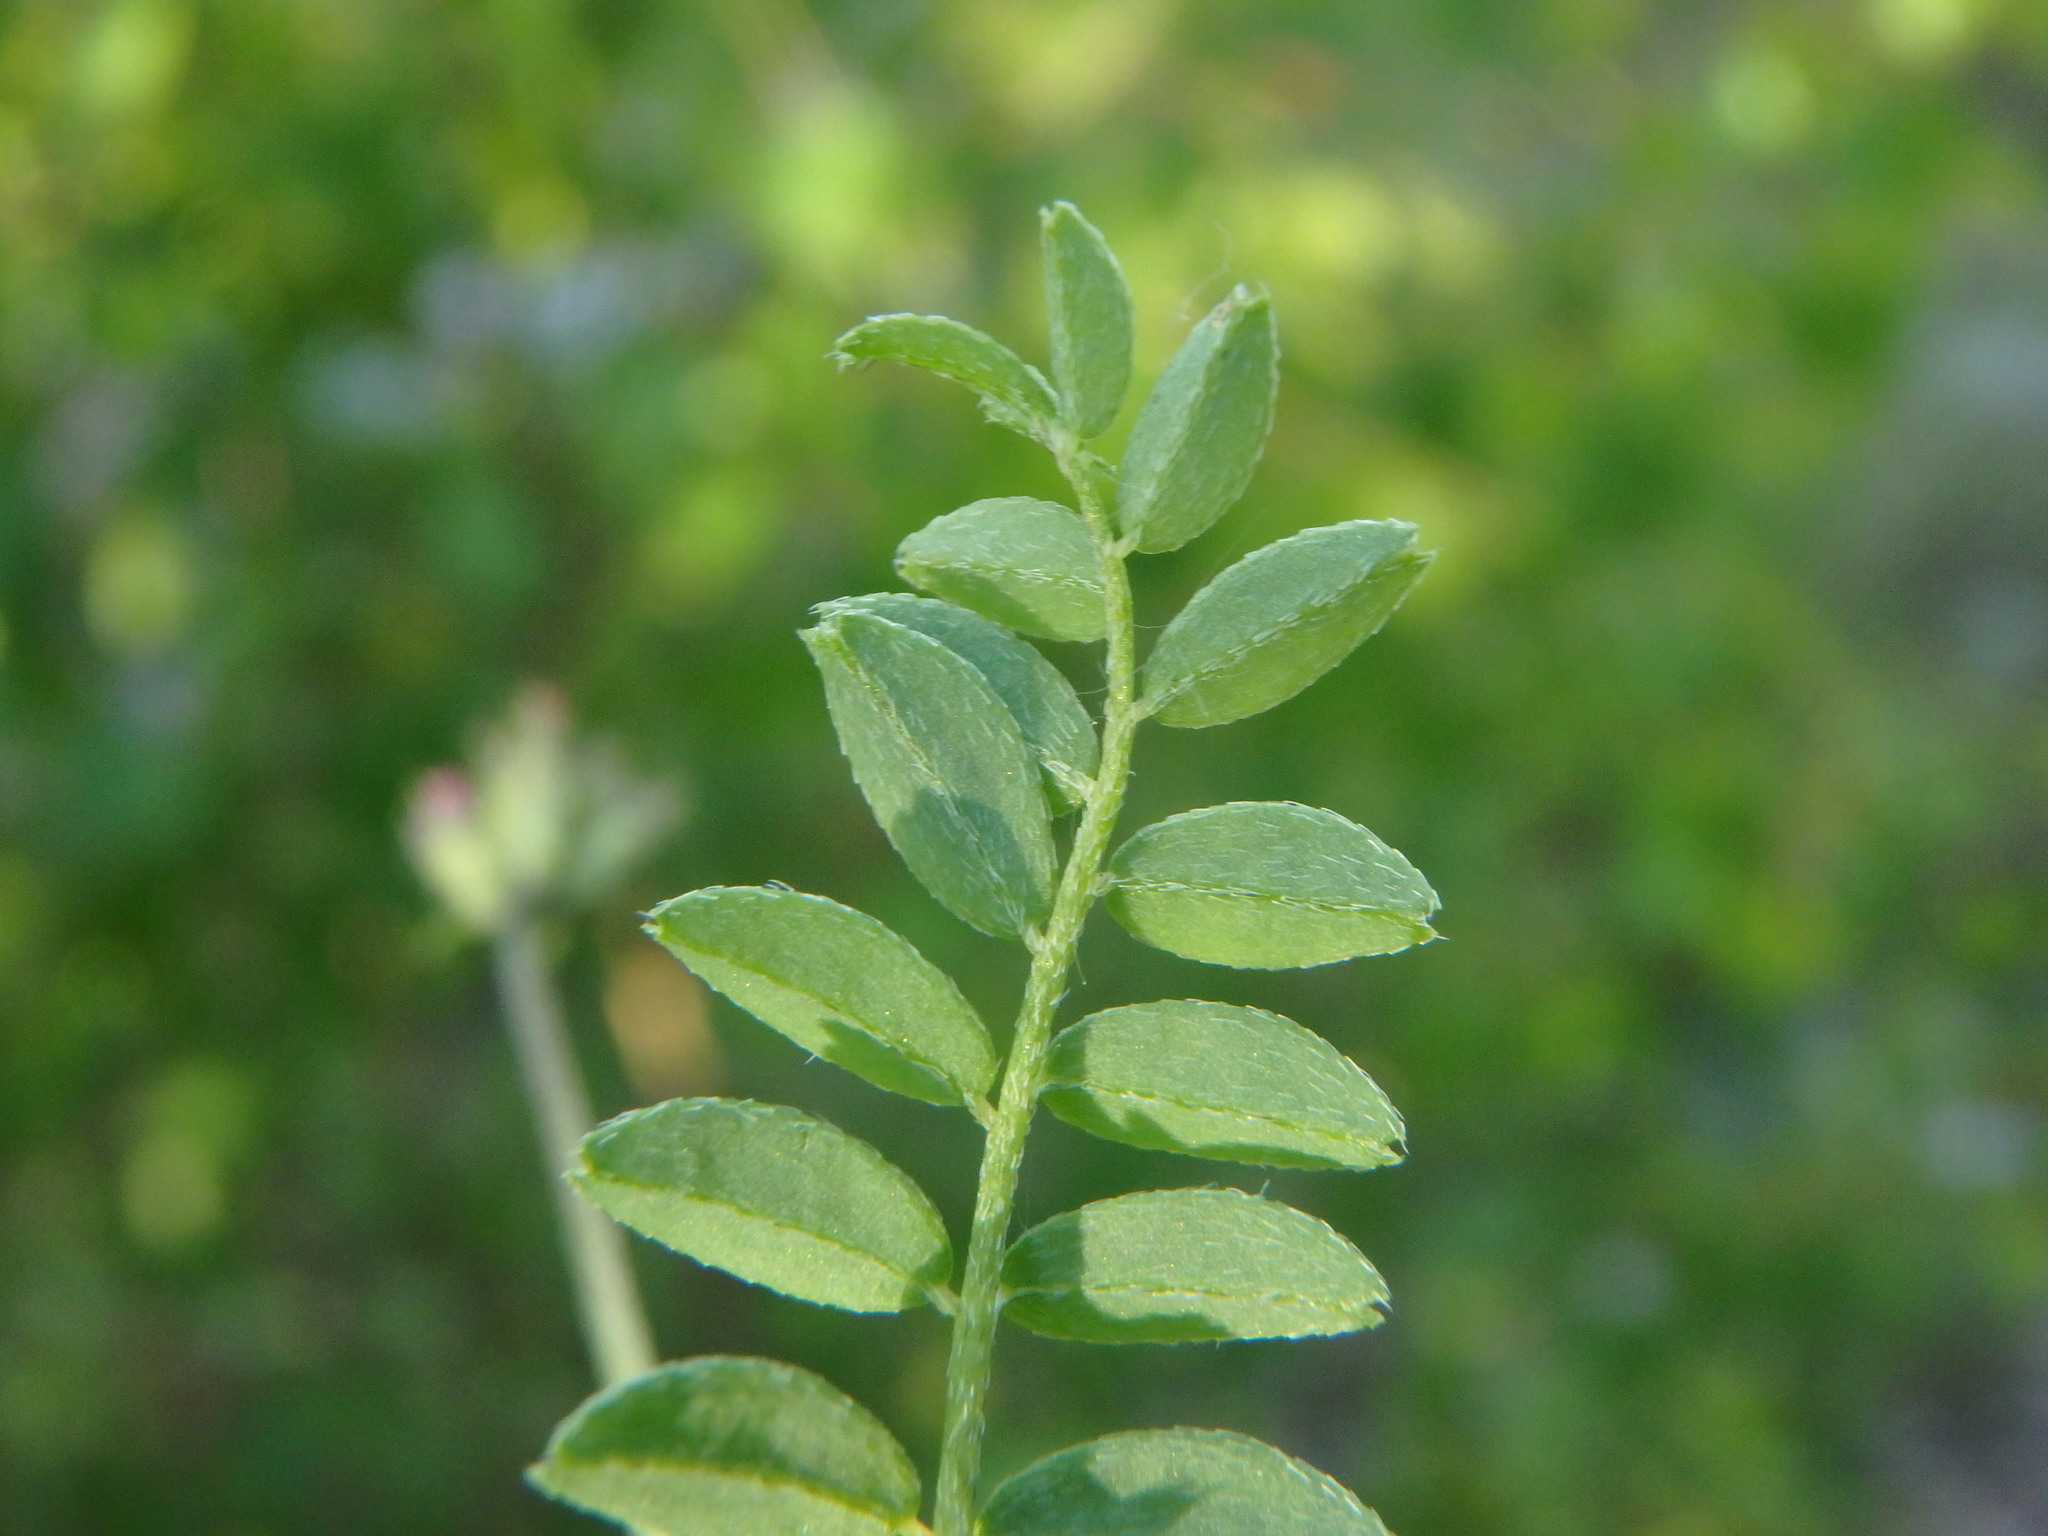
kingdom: Plantae
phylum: Tracheophyta
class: Magnoliopsida
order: Fabales
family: Fabaceae
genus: Astragalus
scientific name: Astragalus danicus
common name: Purple milk-vetch
